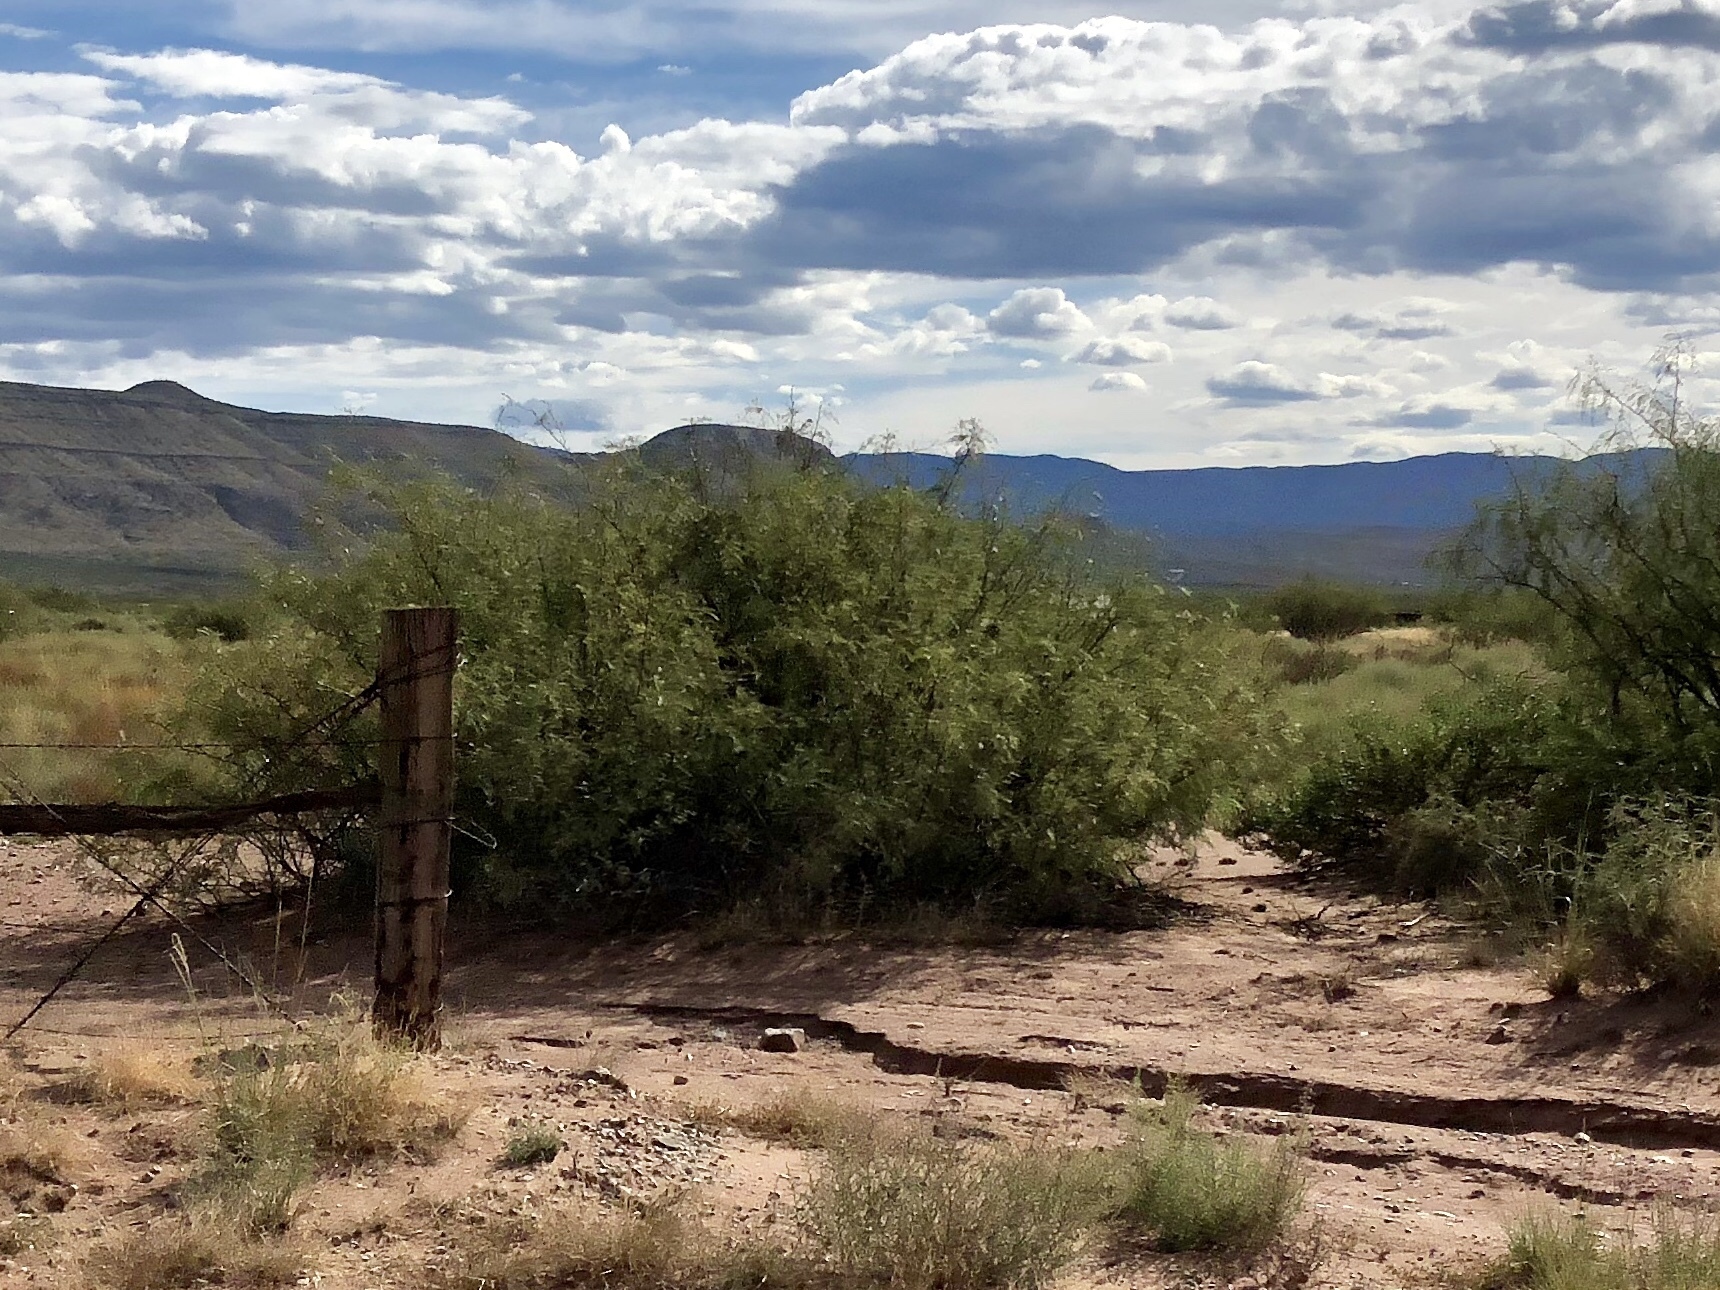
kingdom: Plantae
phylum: Tracheophyta
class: Magnoliopsida
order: Fabales
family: Fabaceae
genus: Prosopis
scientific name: Prosopis glandulosa
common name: Honey mesquite
